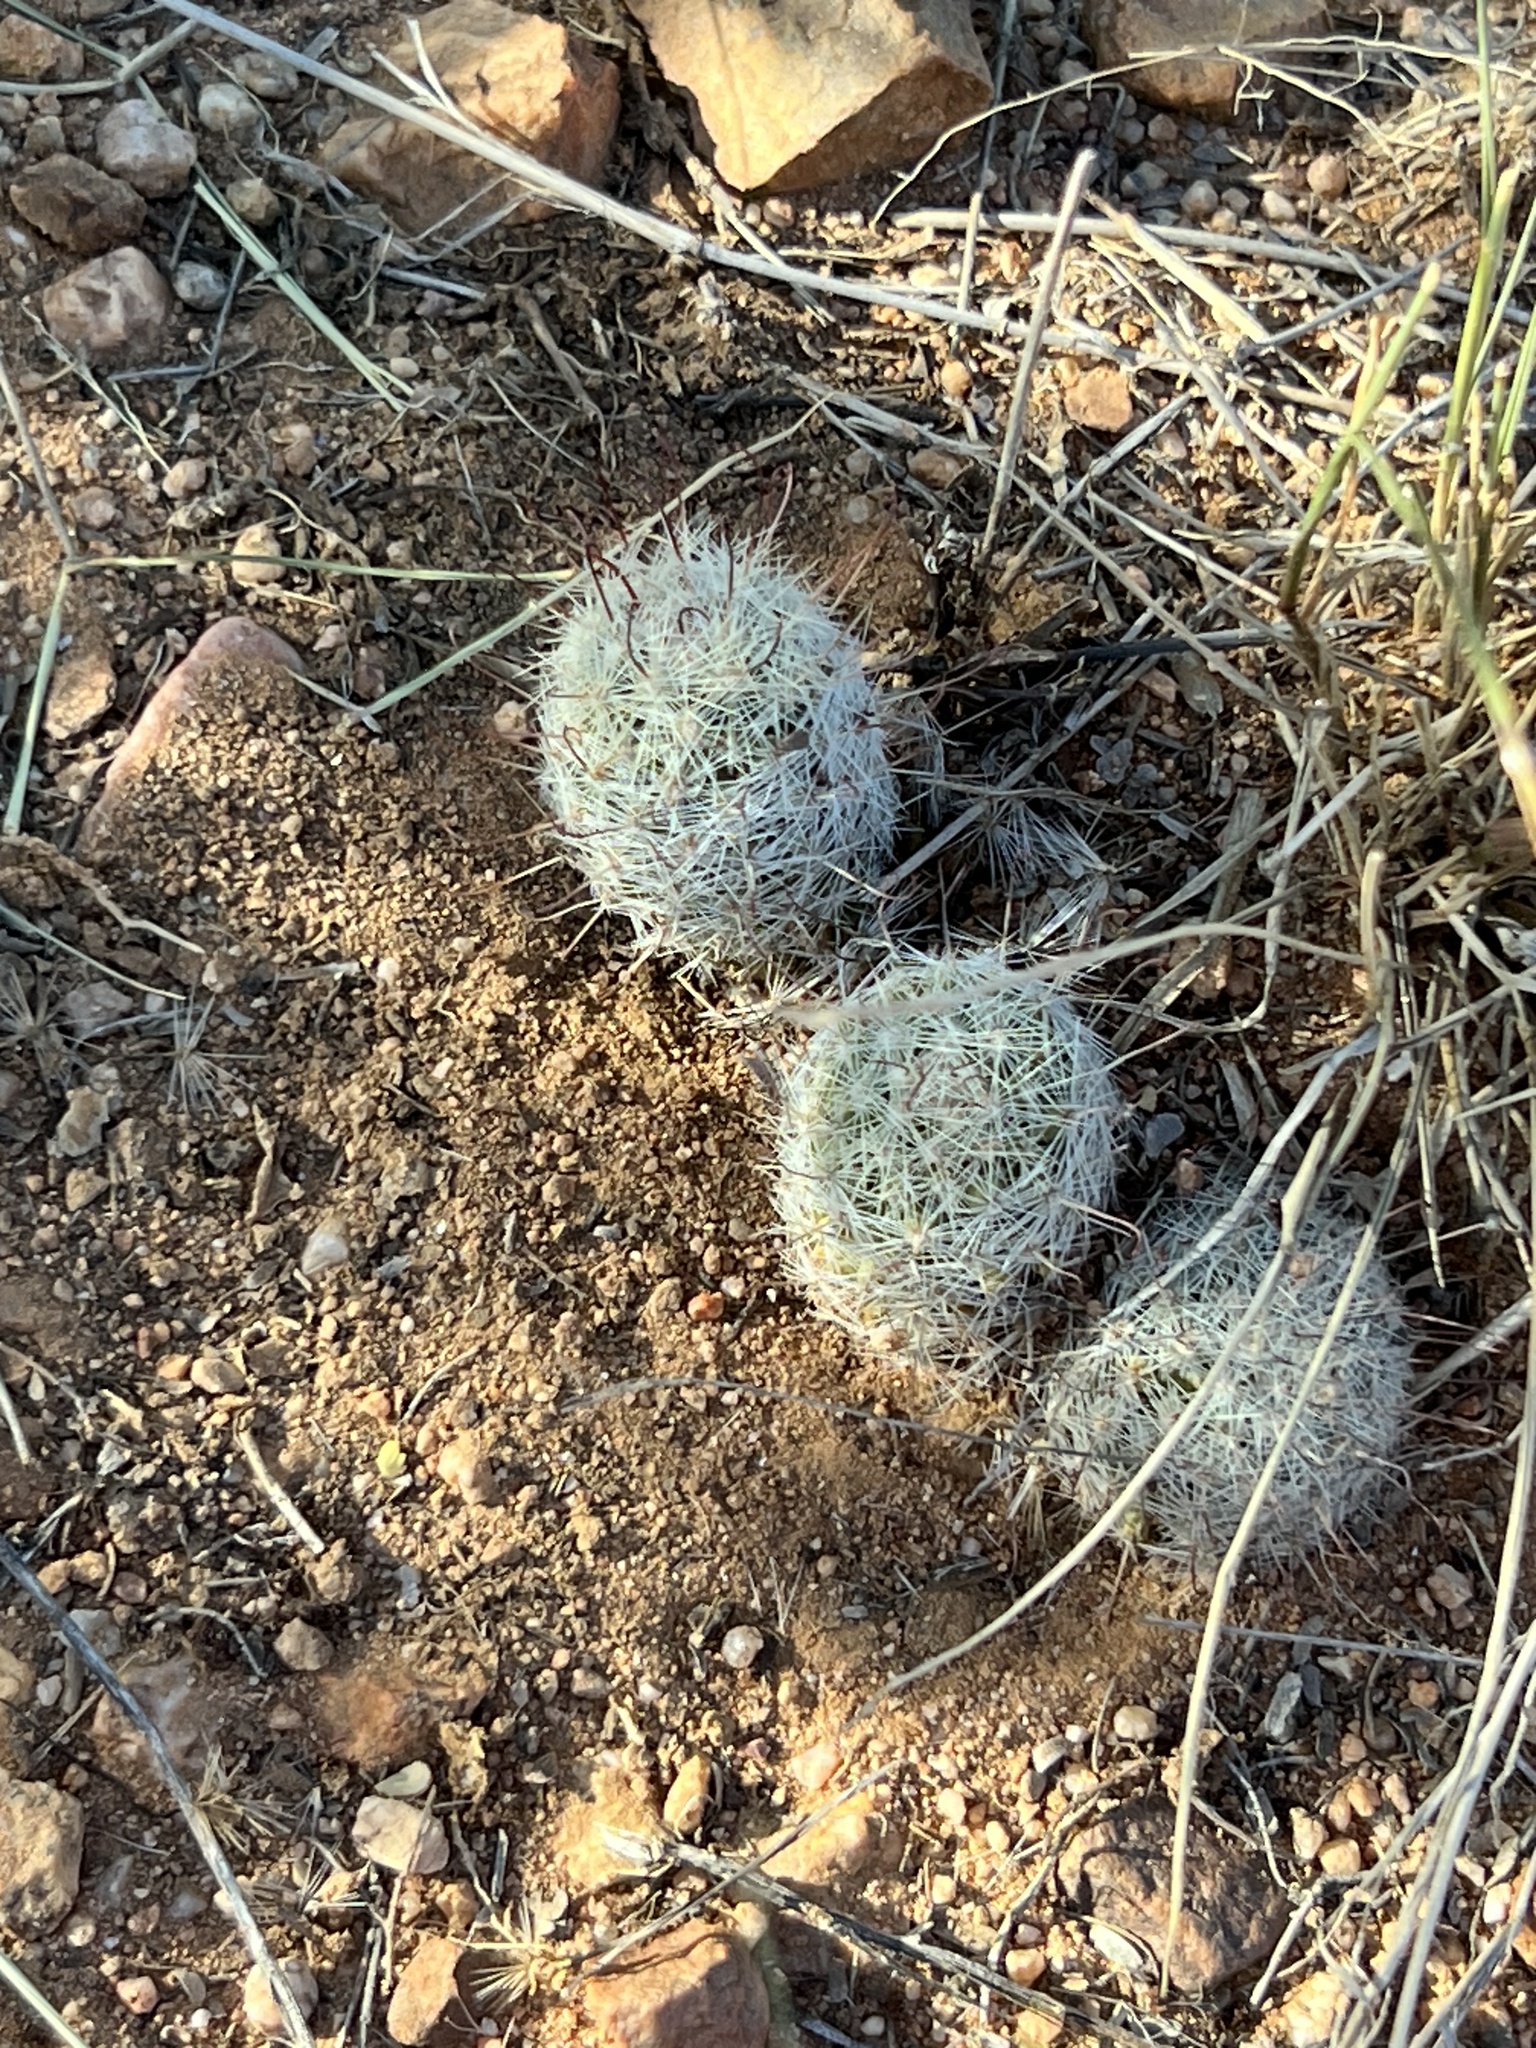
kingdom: Plantae
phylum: Tracheophyta
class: Magnoliopsida
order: Caryophyllales
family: Cactaceae
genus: Cochemiea
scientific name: Cochemiea grahamii
